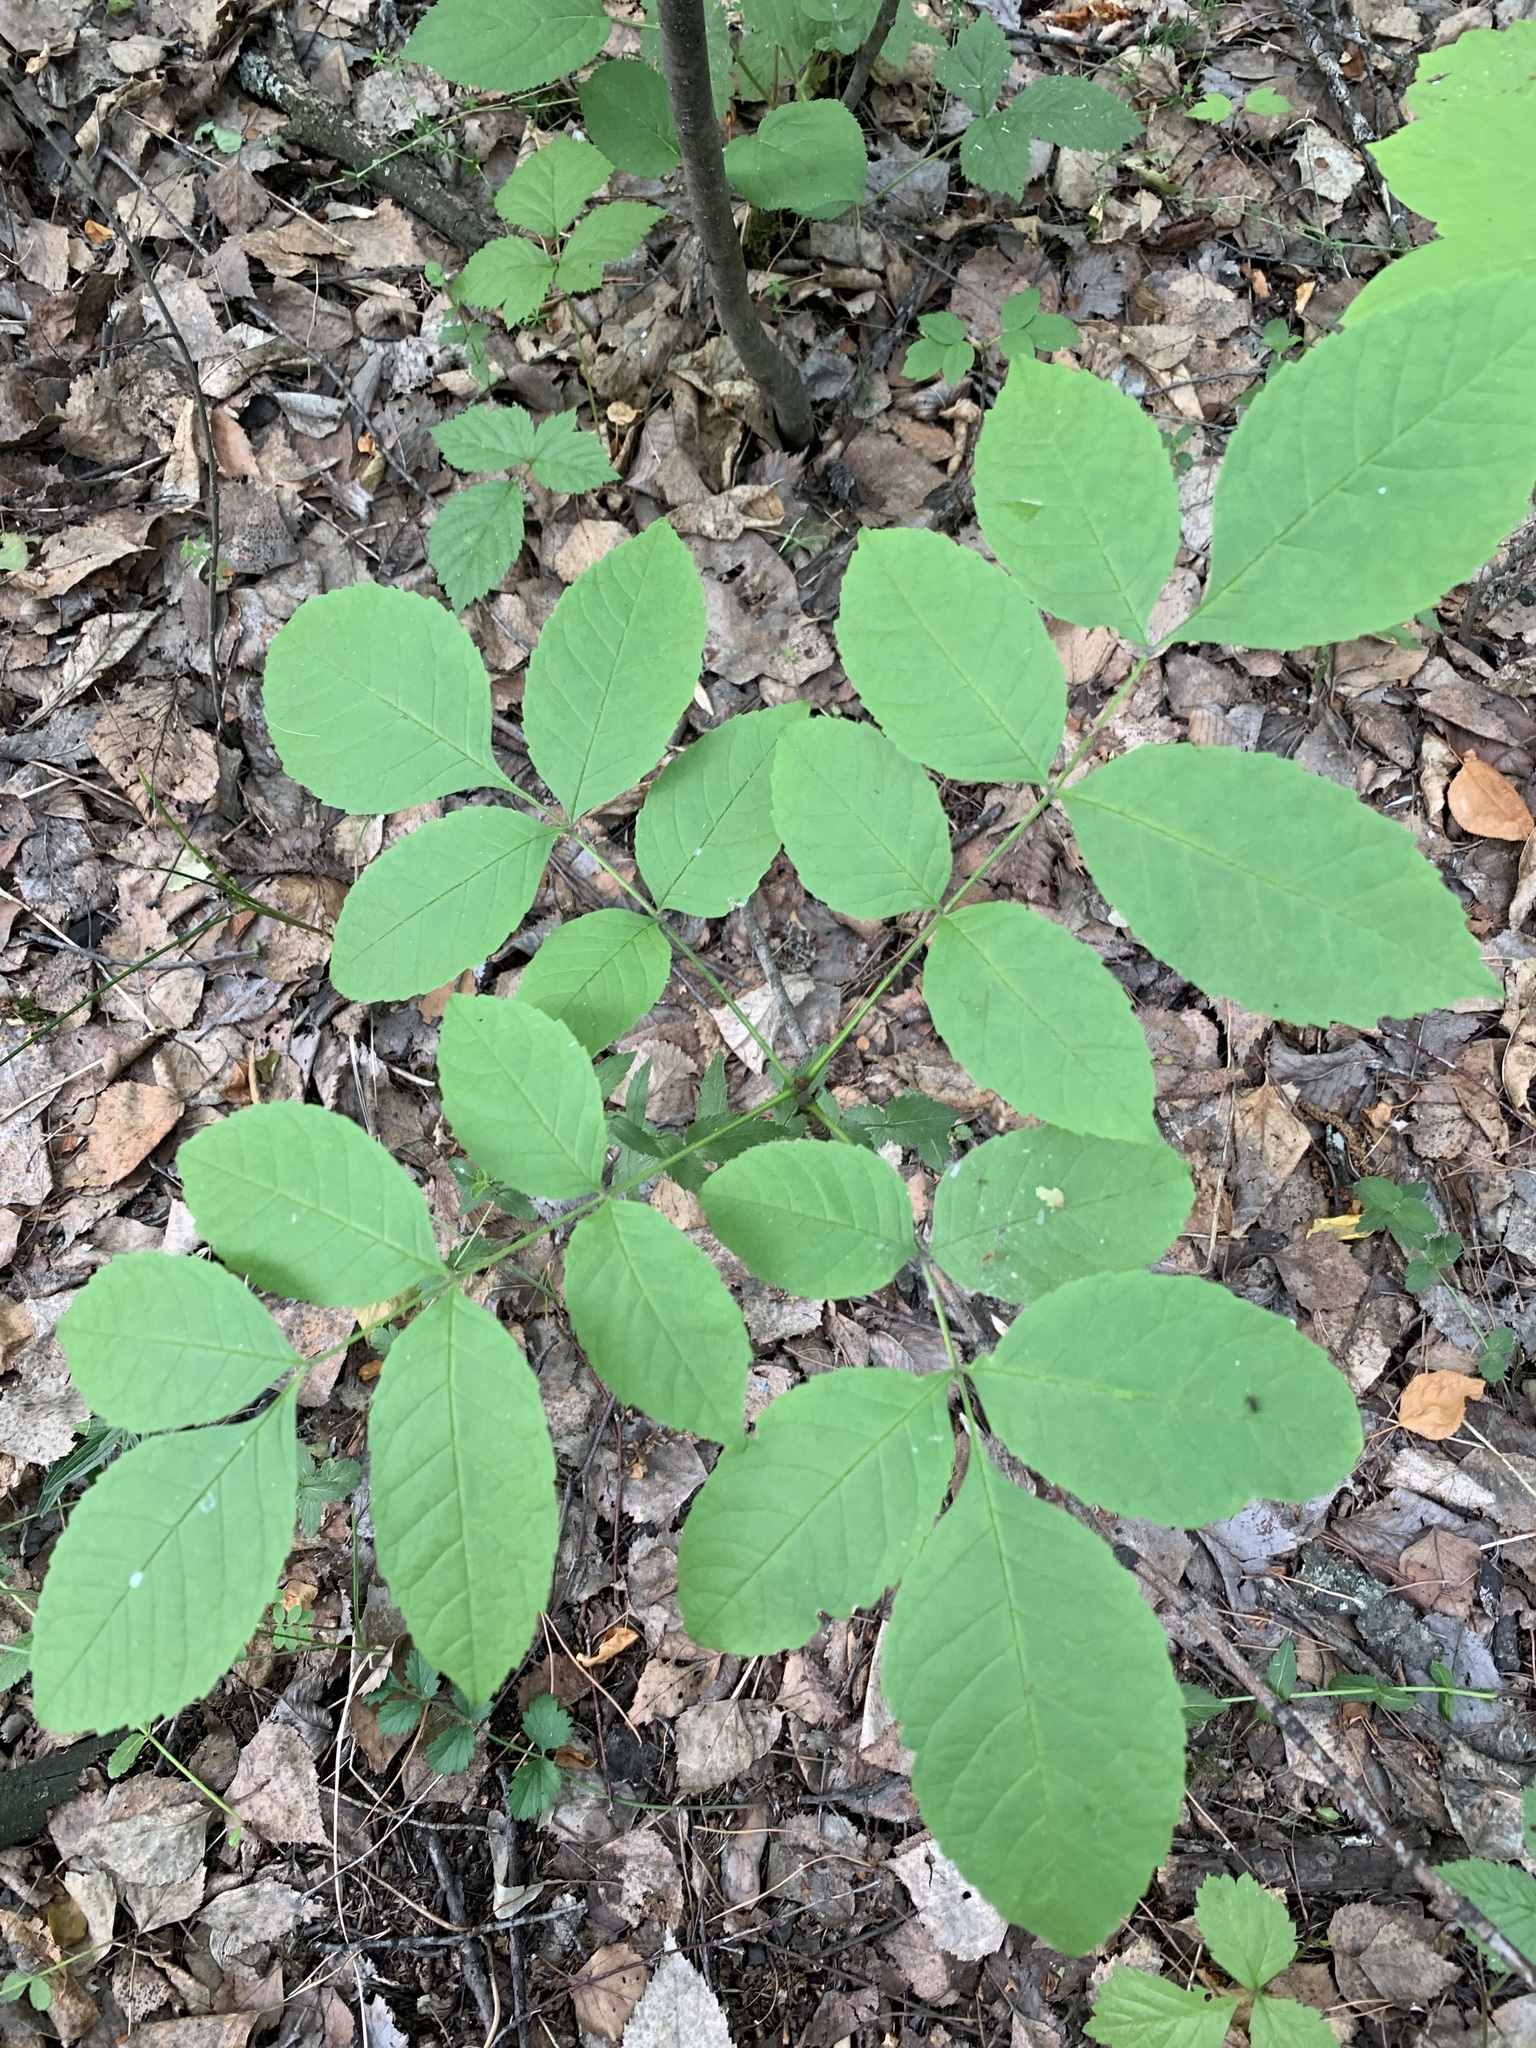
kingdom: Plantae
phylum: Tracheophyta
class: Magnoliopsida
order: Lamiales
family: Oleaceae
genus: Fraxinus
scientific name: Fraxinus pennsylvanica
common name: Green ash
